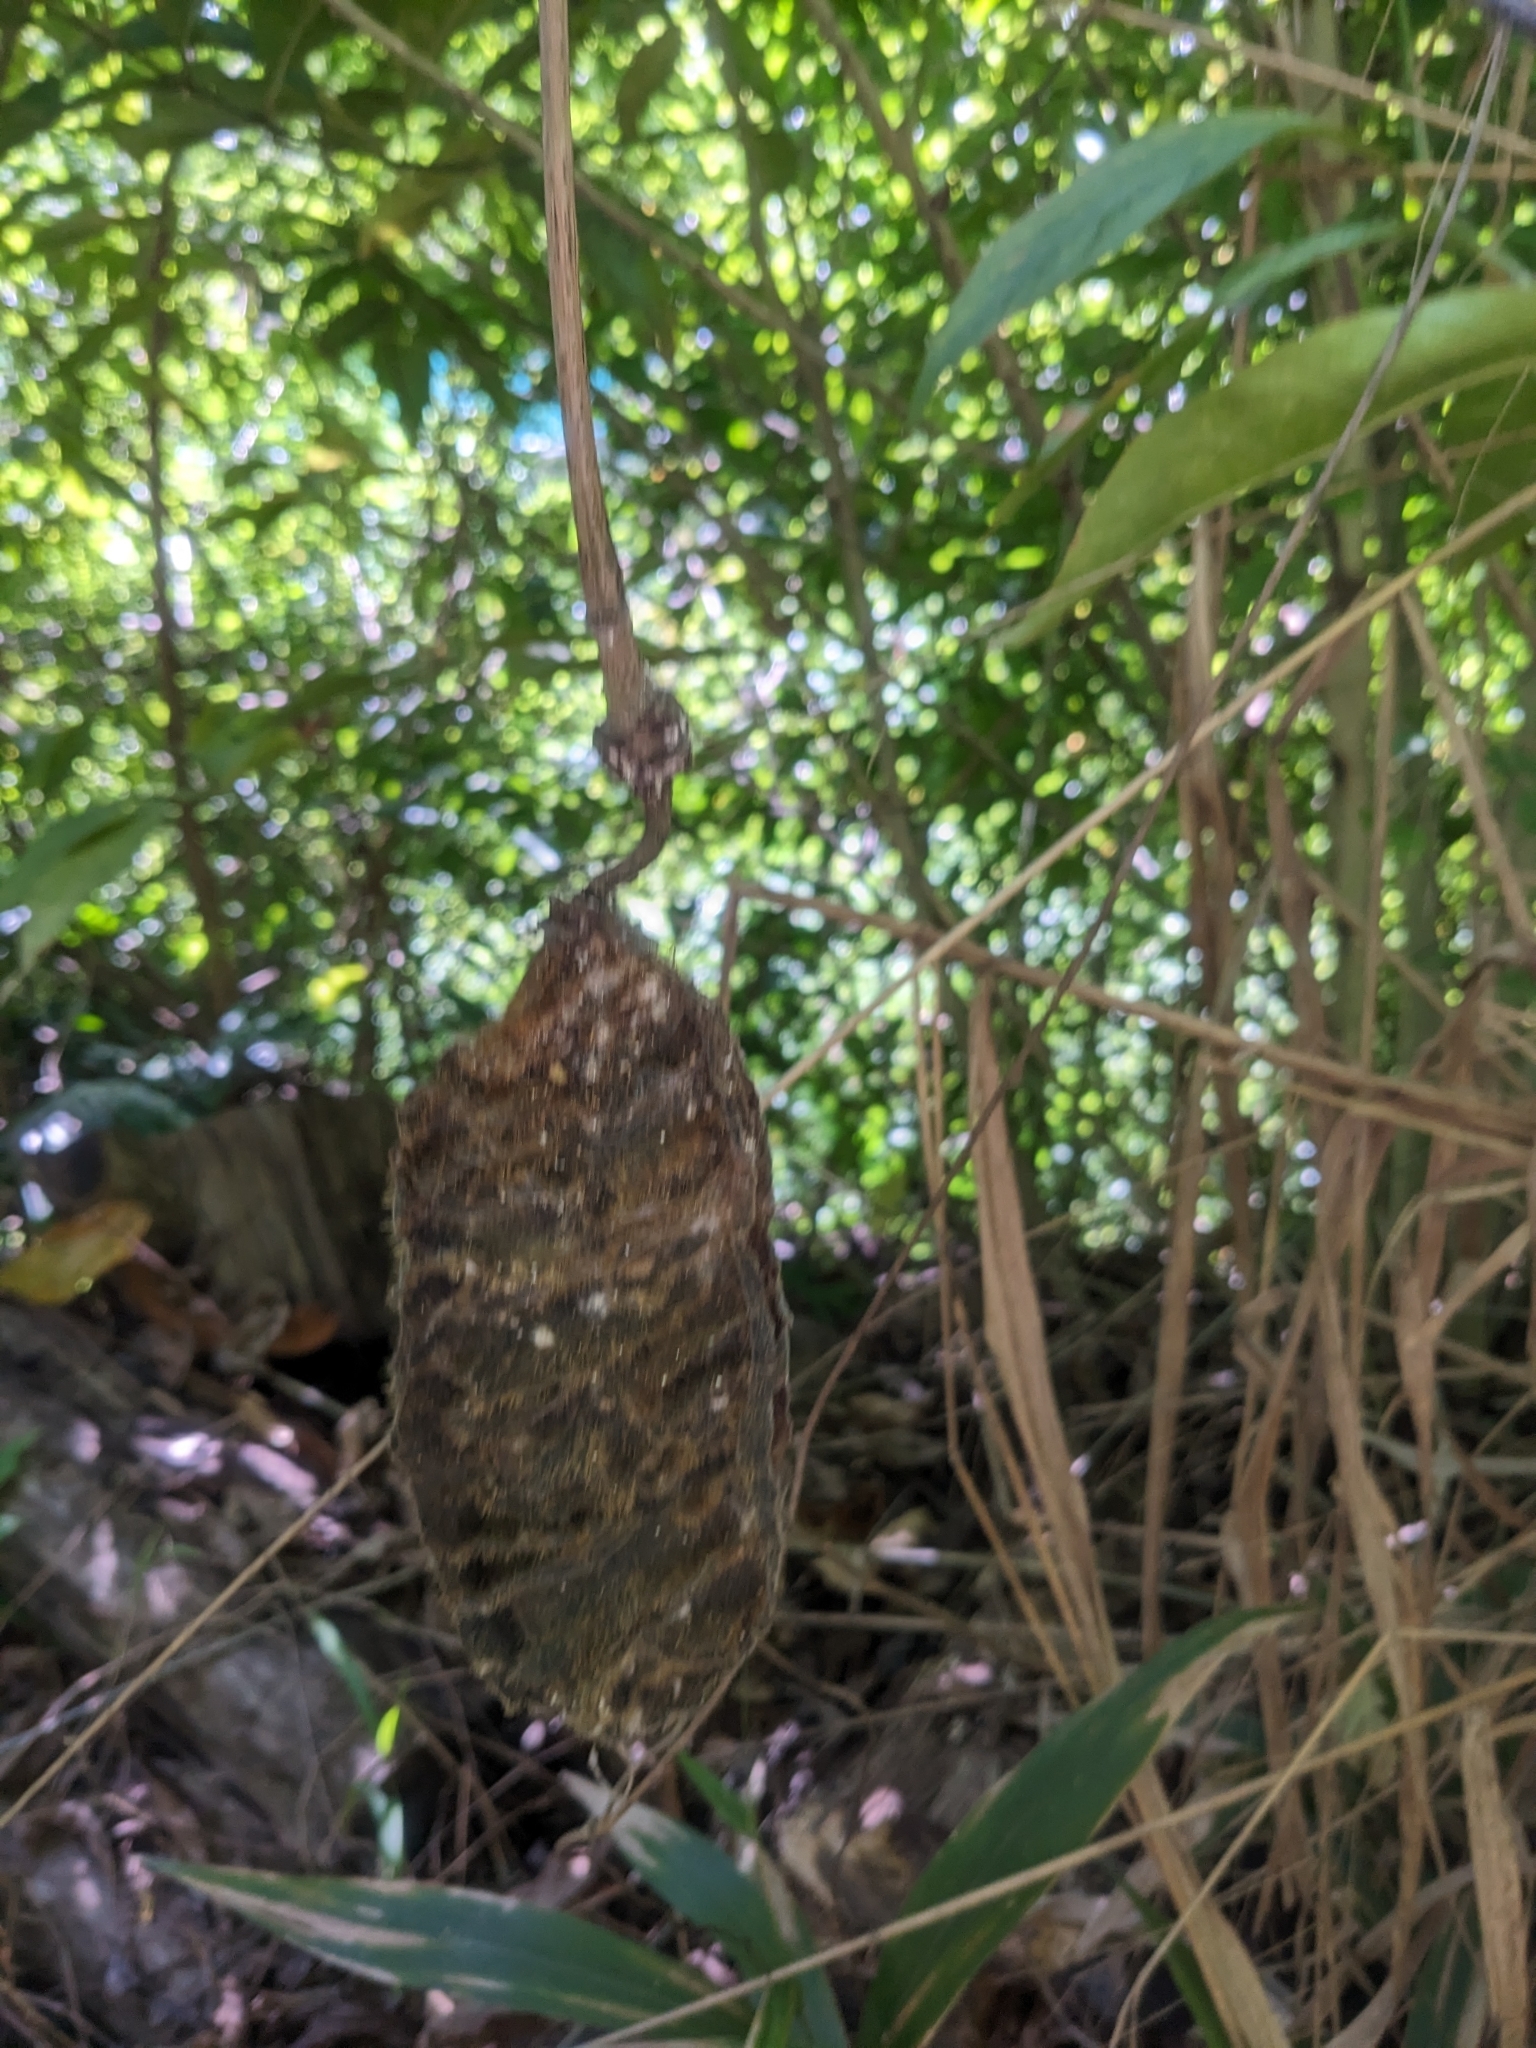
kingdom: Plantae
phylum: Tracheophyta
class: Magnoliopsida
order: Fabales
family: Fabaceae
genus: Mucuna
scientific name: Mucuna gigantea
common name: Black-bean
